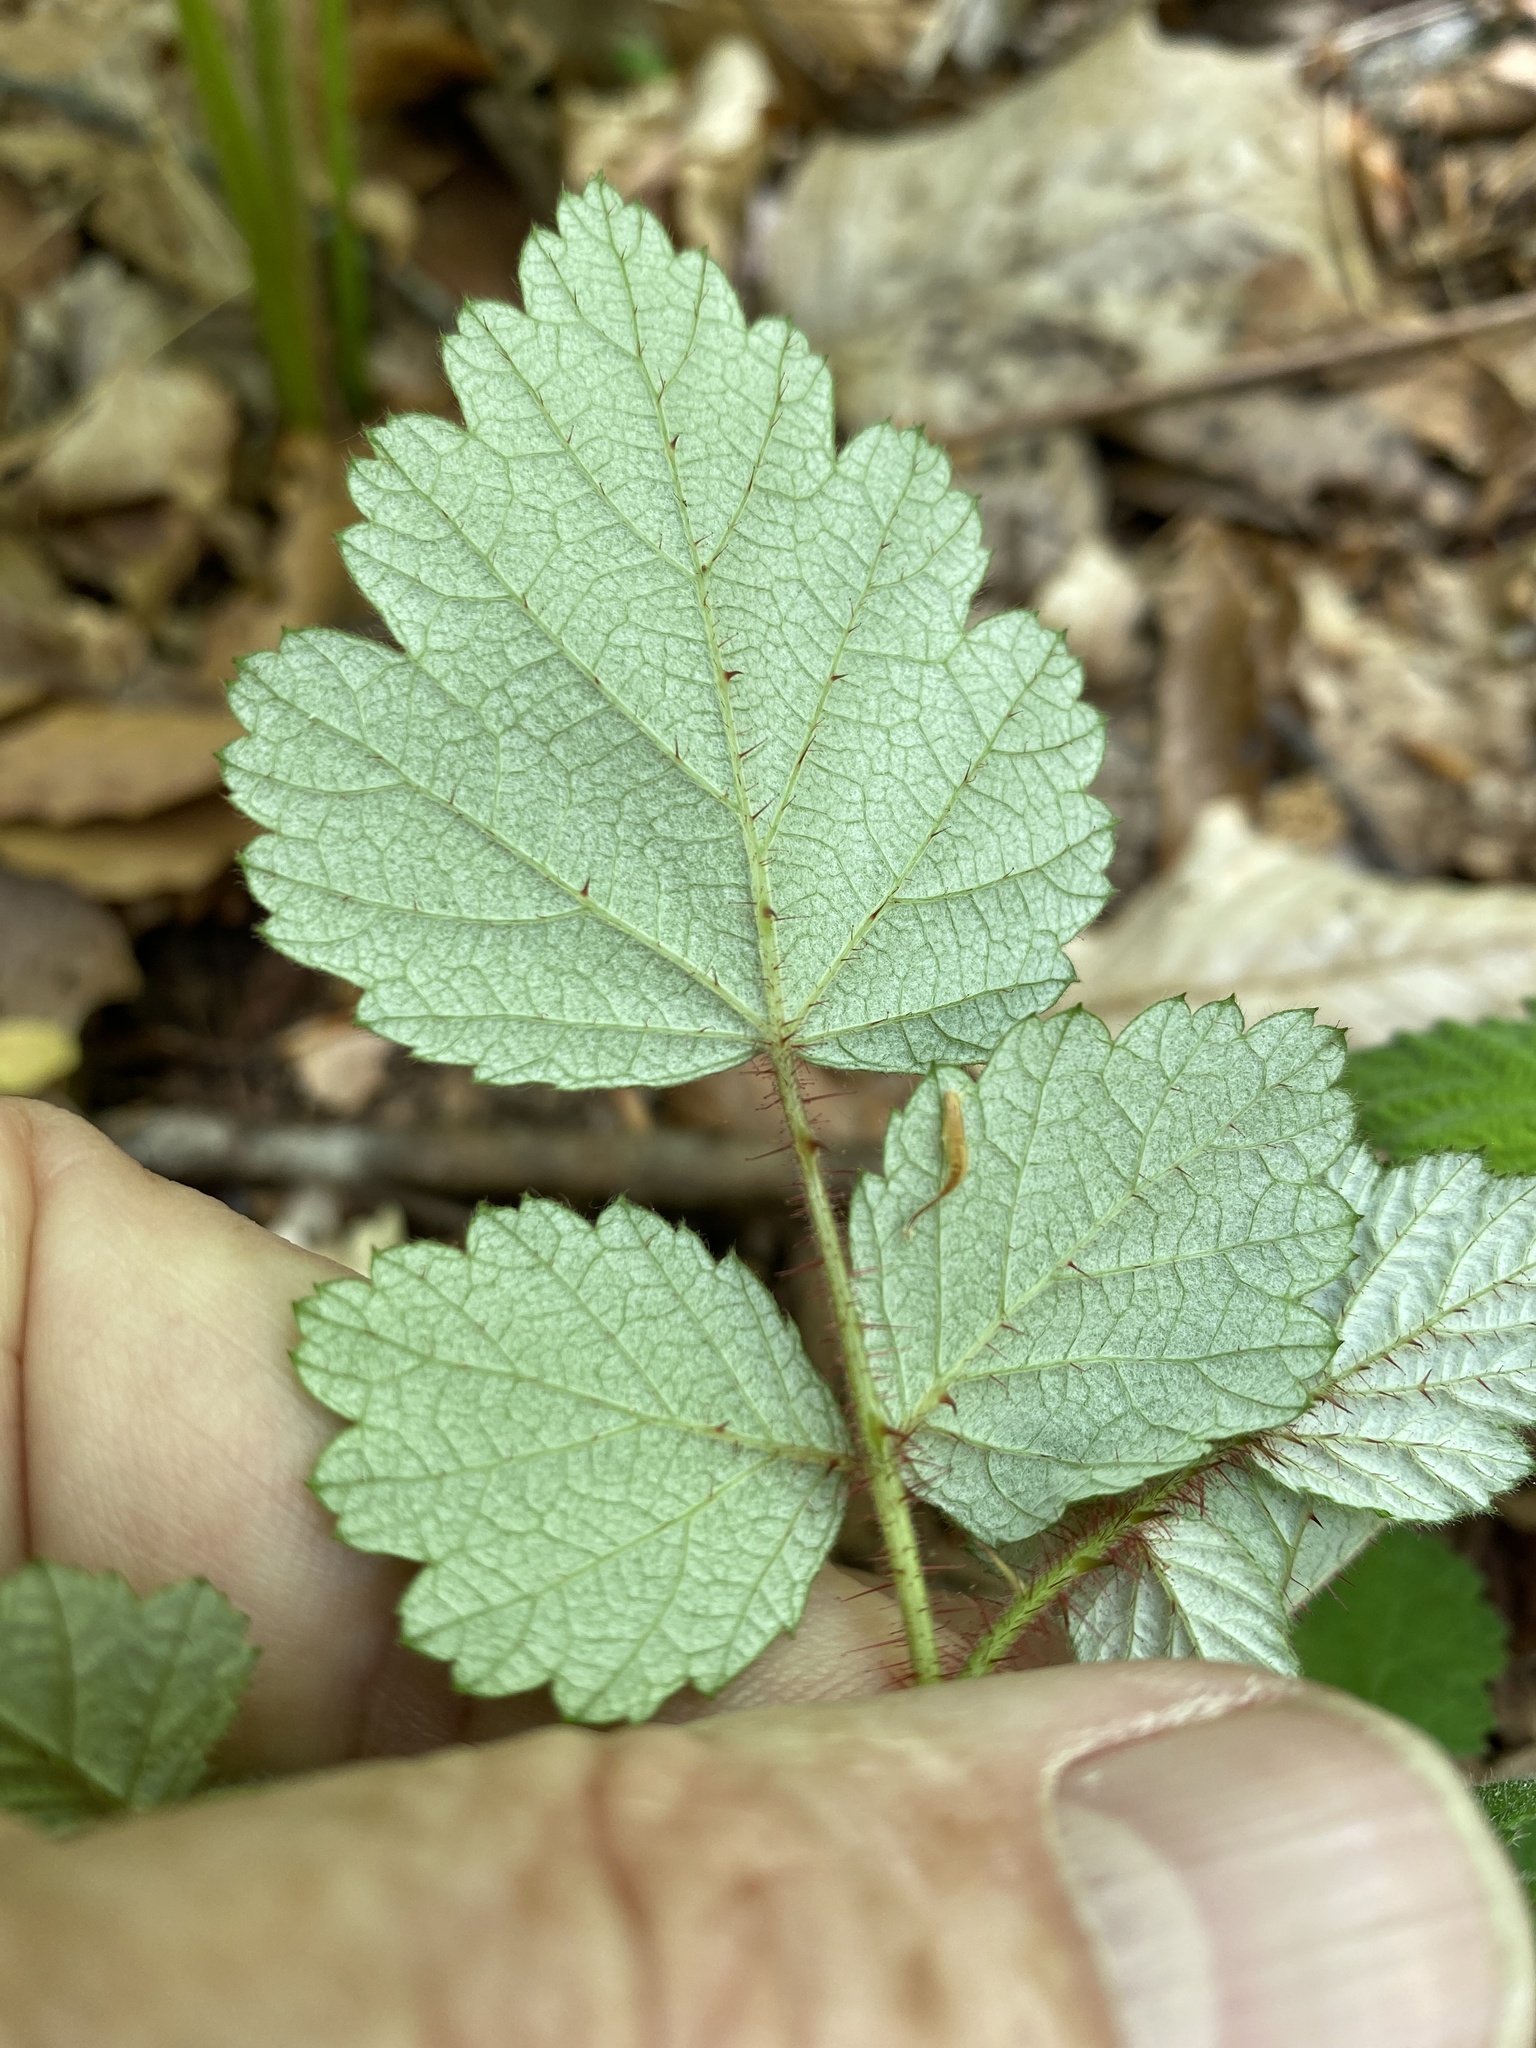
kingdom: Plantae
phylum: Tracheophyta
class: Magnoliopsida
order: Rosales
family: Rosaceae
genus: Rubus
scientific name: Rubus phoenicolasius
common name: Japanese wineberry
